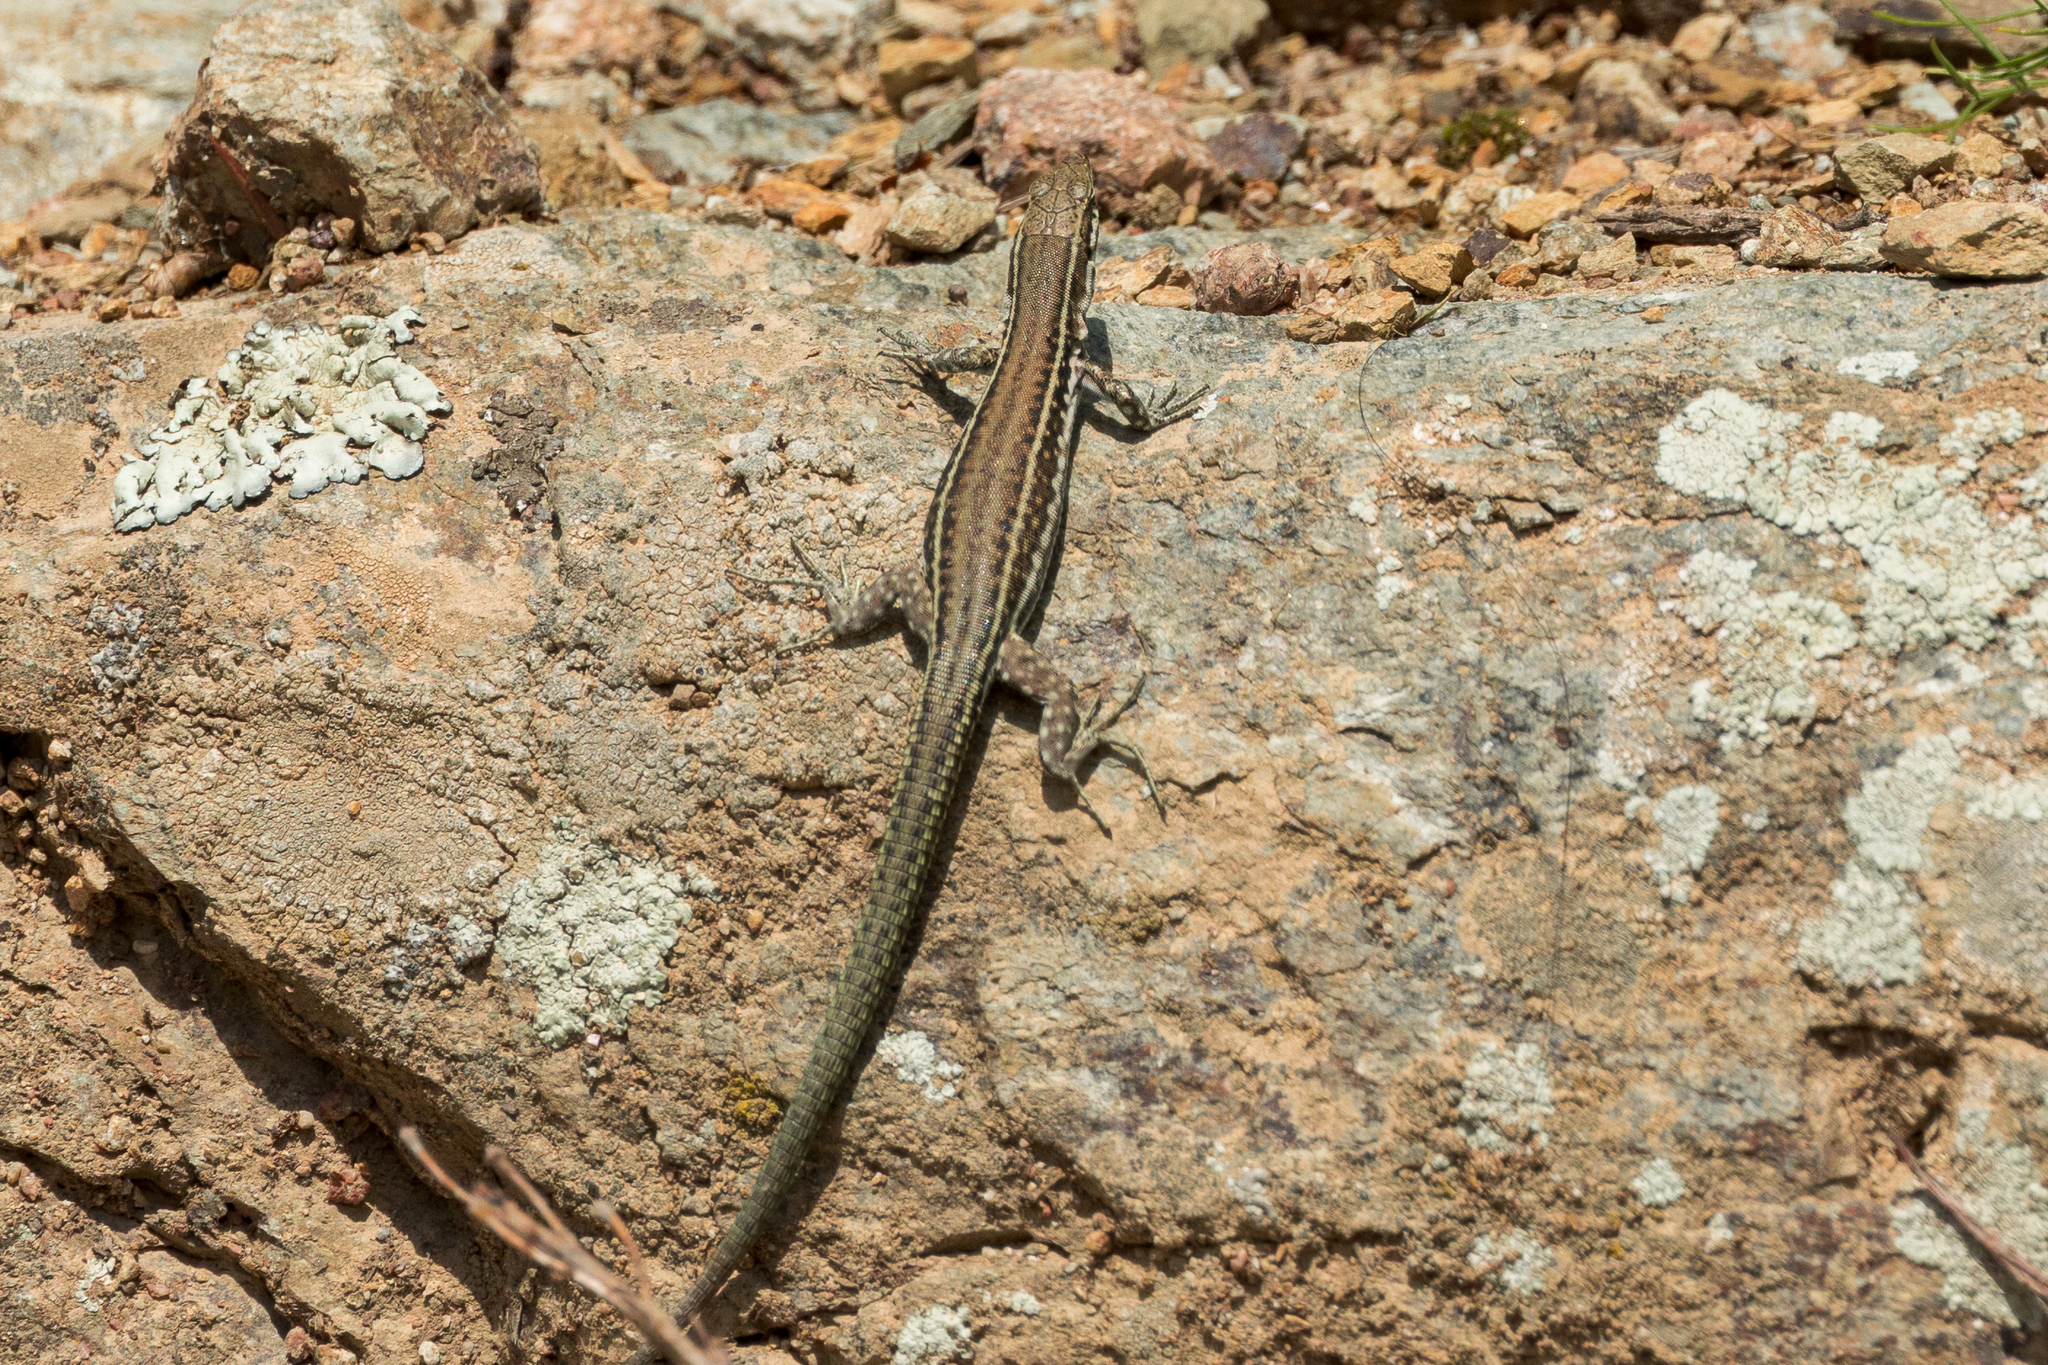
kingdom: Animalia
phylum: Chordata
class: Squamata
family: Lacertidae
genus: Podarcis
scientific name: Podarcis tiliguerta
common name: Tyrrhenian wall lizard
